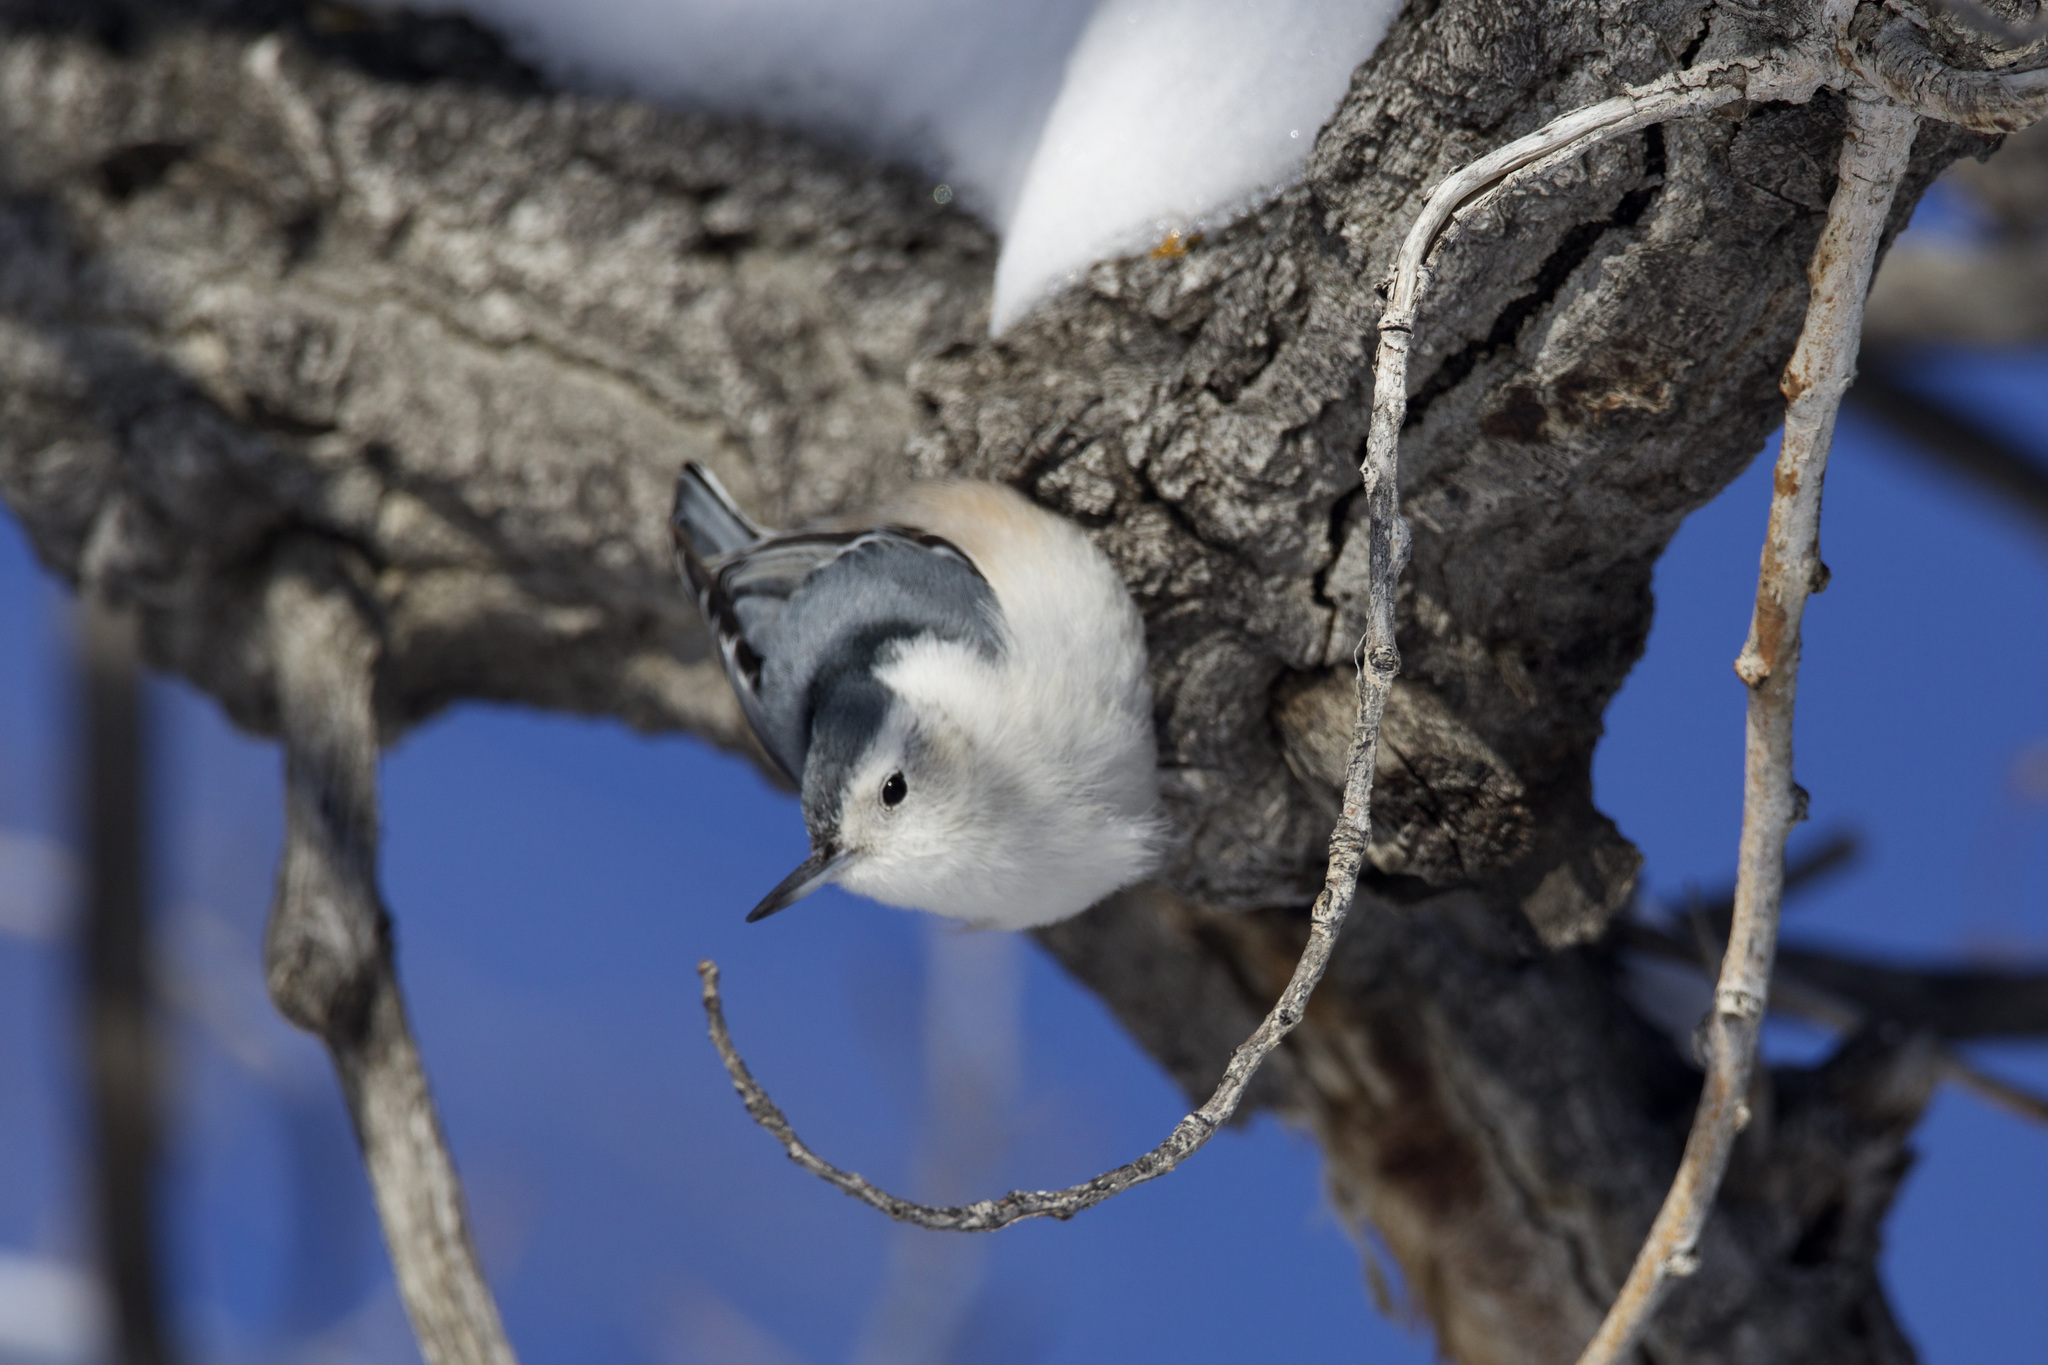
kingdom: Animalia
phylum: Chordata
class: Aves
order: Passeriformes
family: Sittidae
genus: Sitta
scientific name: Sitta carolinensis
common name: White-breasted nuthatch
